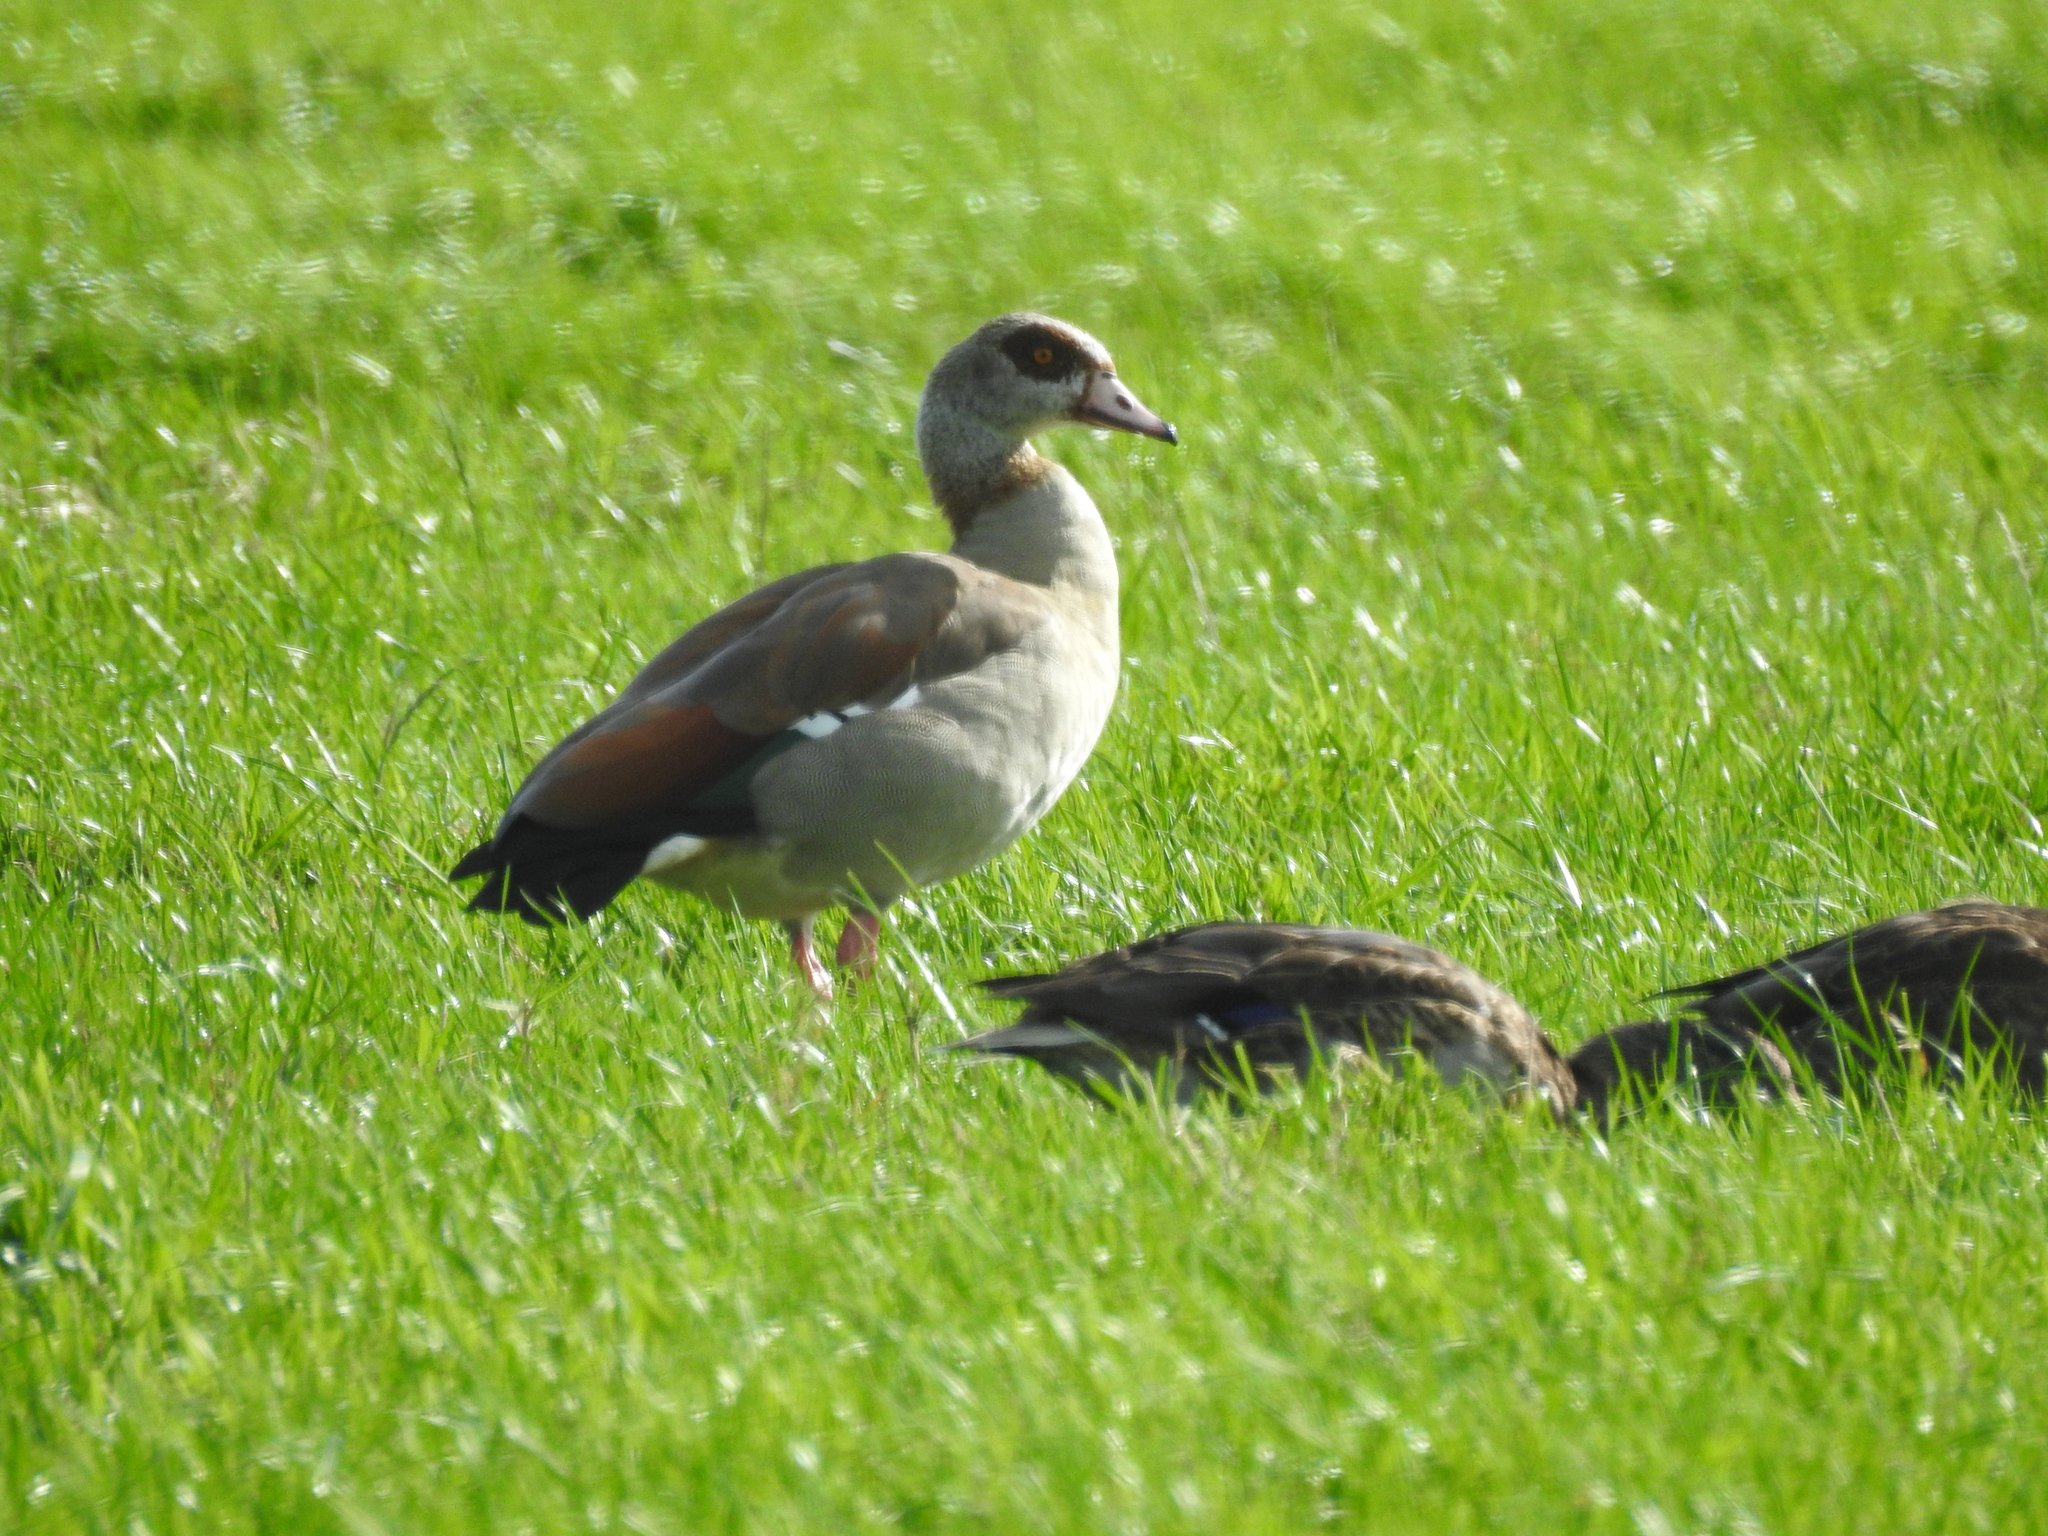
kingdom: Animalia
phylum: Chordata
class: Aves
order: Anseriformes
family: Anatidae
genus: Alopochen
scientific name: Alopochen aegyptiaca
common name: Egyptian goose
